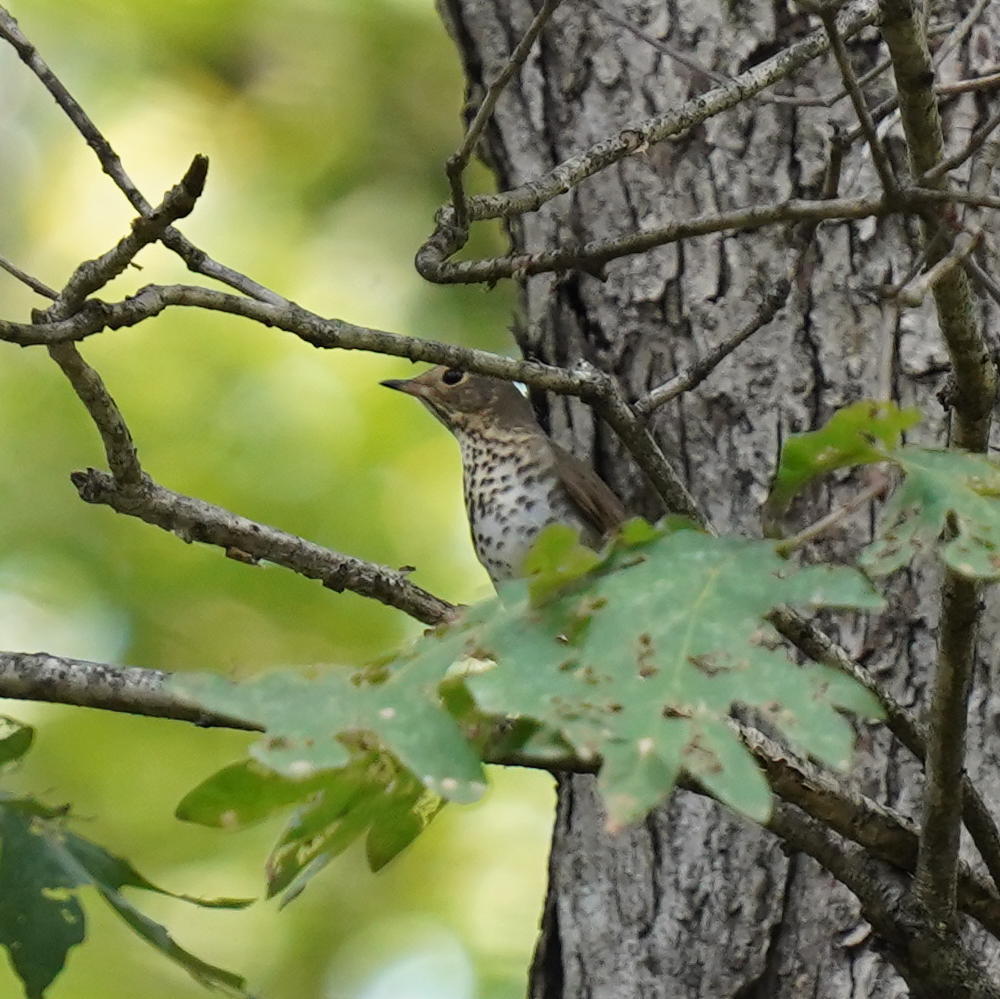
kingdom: Animalia
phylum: Chordata
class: Aves
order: Passeriformes
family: Turdidae
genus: Catharus
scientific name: Catharus ustulatus
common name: Swainson's thrush
